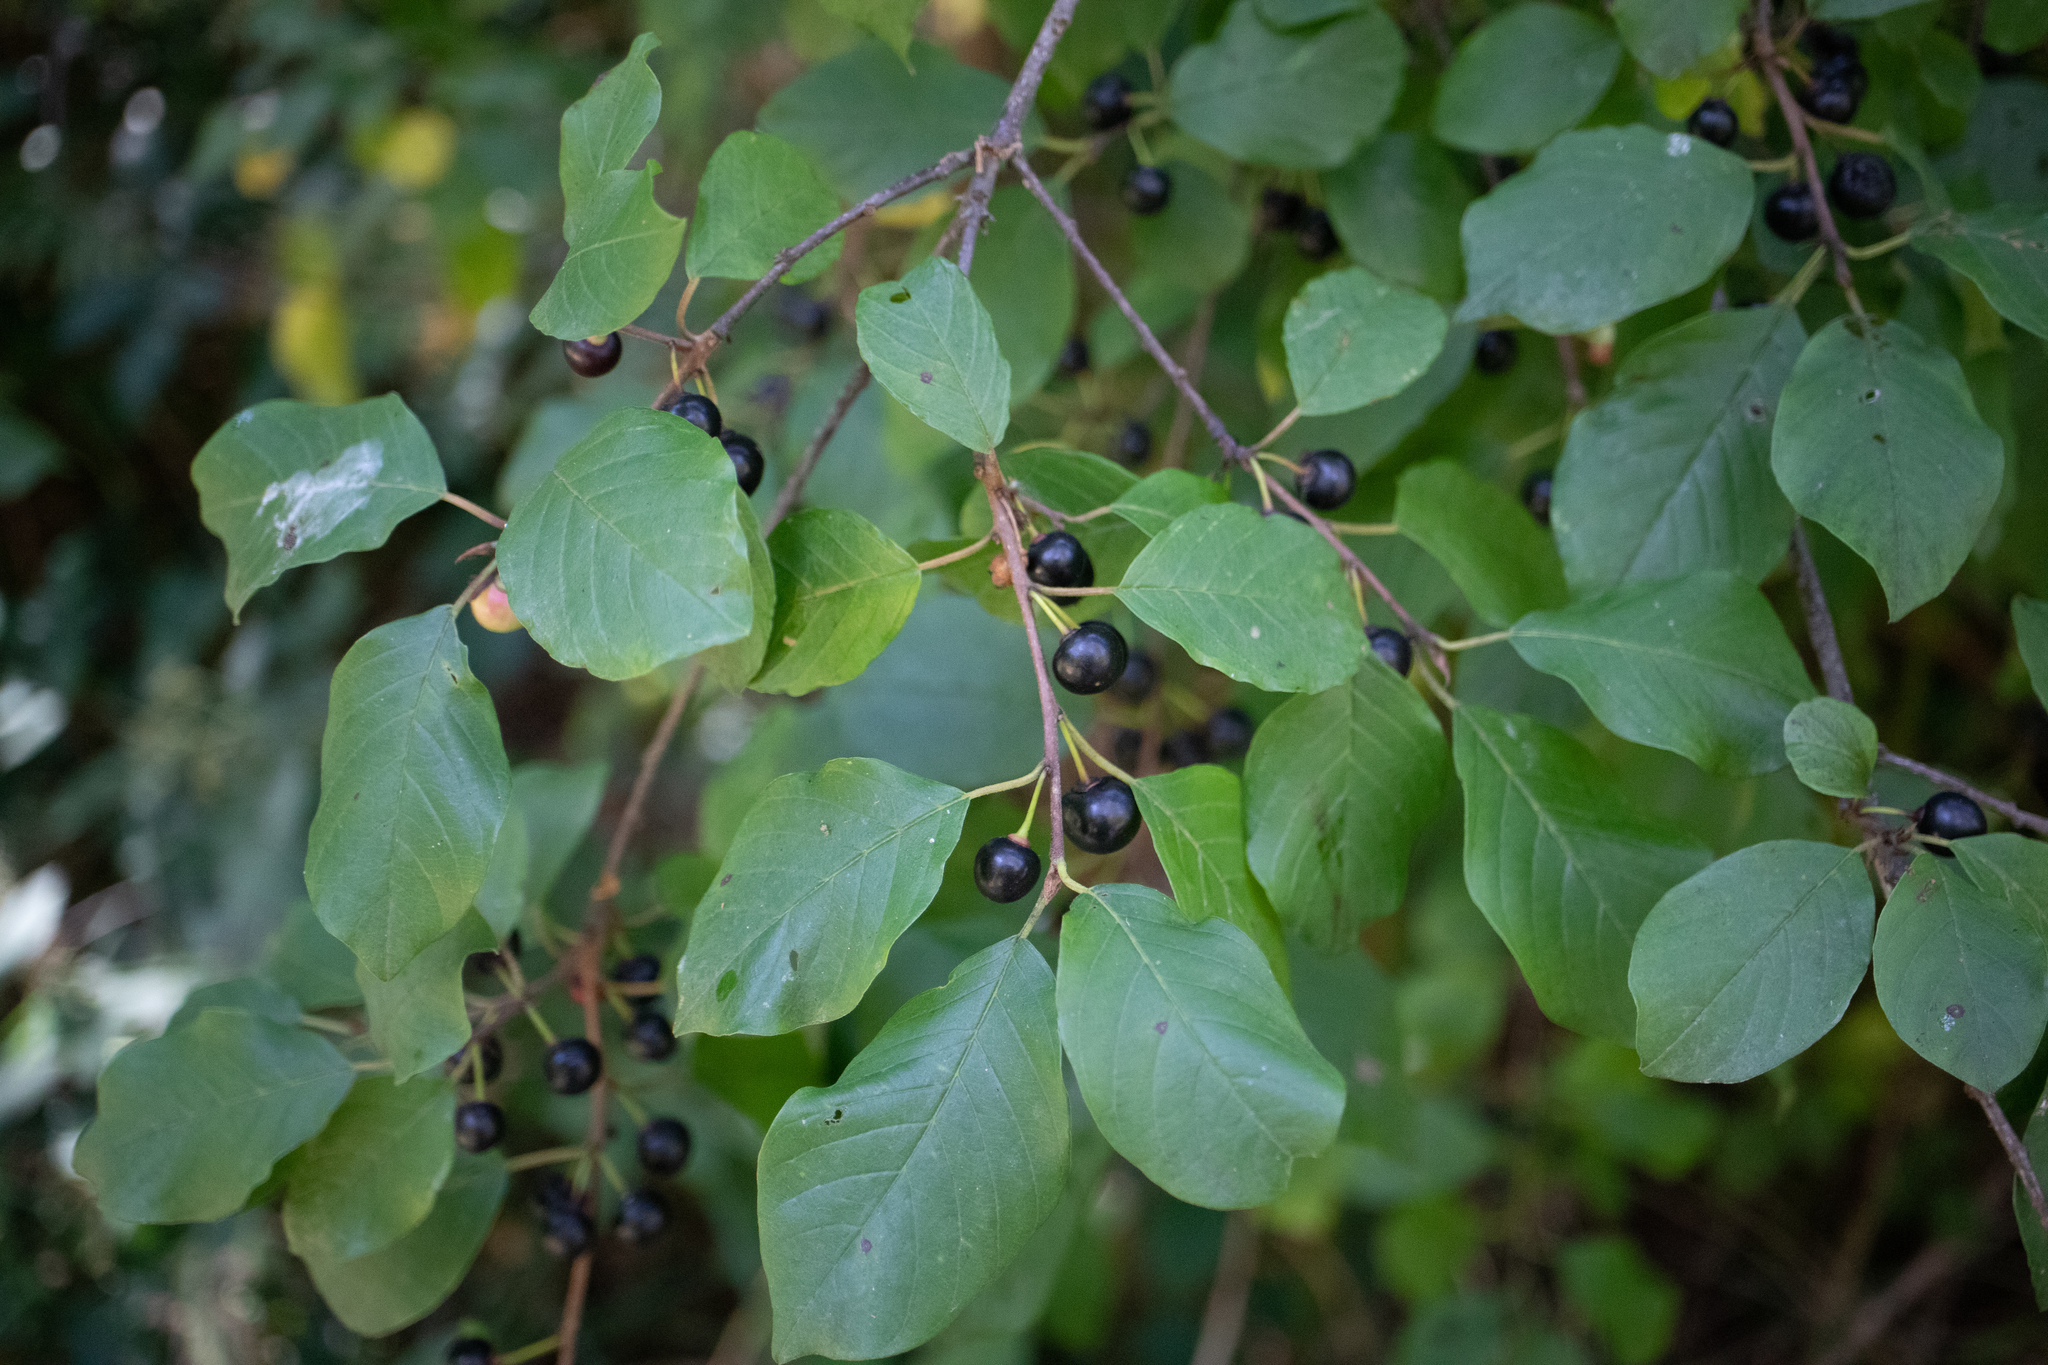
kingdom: Plantae
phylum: Tracheophyta
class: Magnoliopsida
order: Rosales
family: Rhamnaceae
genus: Frangula
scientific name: Frangula alnus
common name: Alder buckthorn
